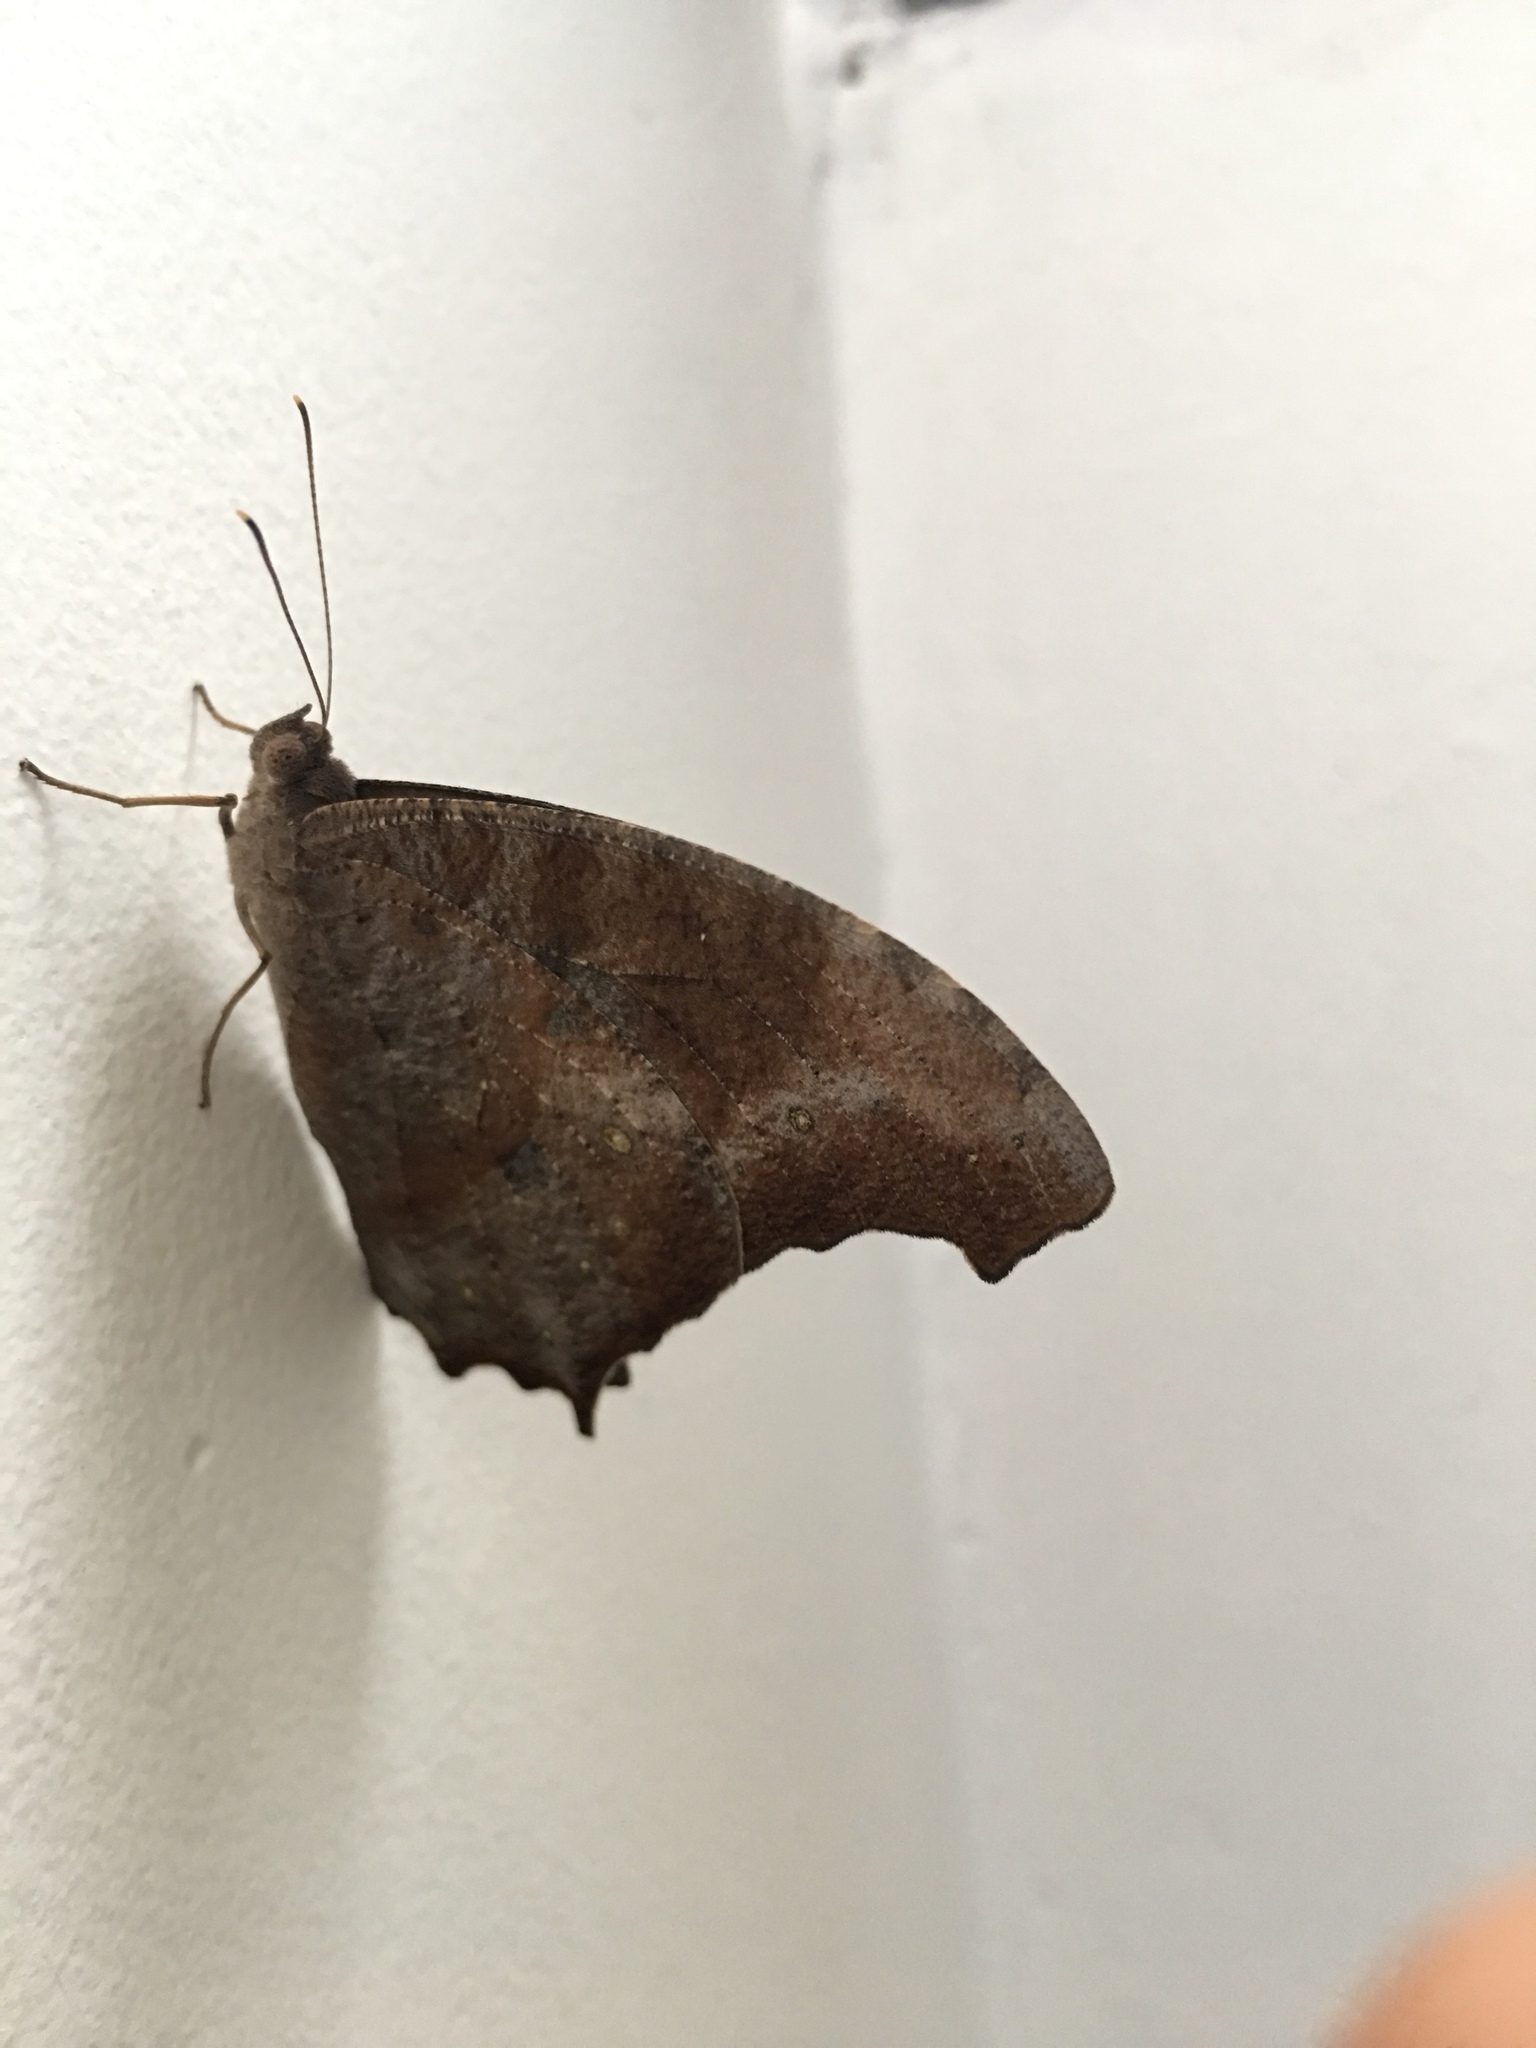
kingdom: Animalia
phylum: Arthropoda
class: Insecta
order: Lepidoptera
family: Nymphalidae
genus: Melanitis
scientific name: Melanitis leda
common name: Twilight brown
